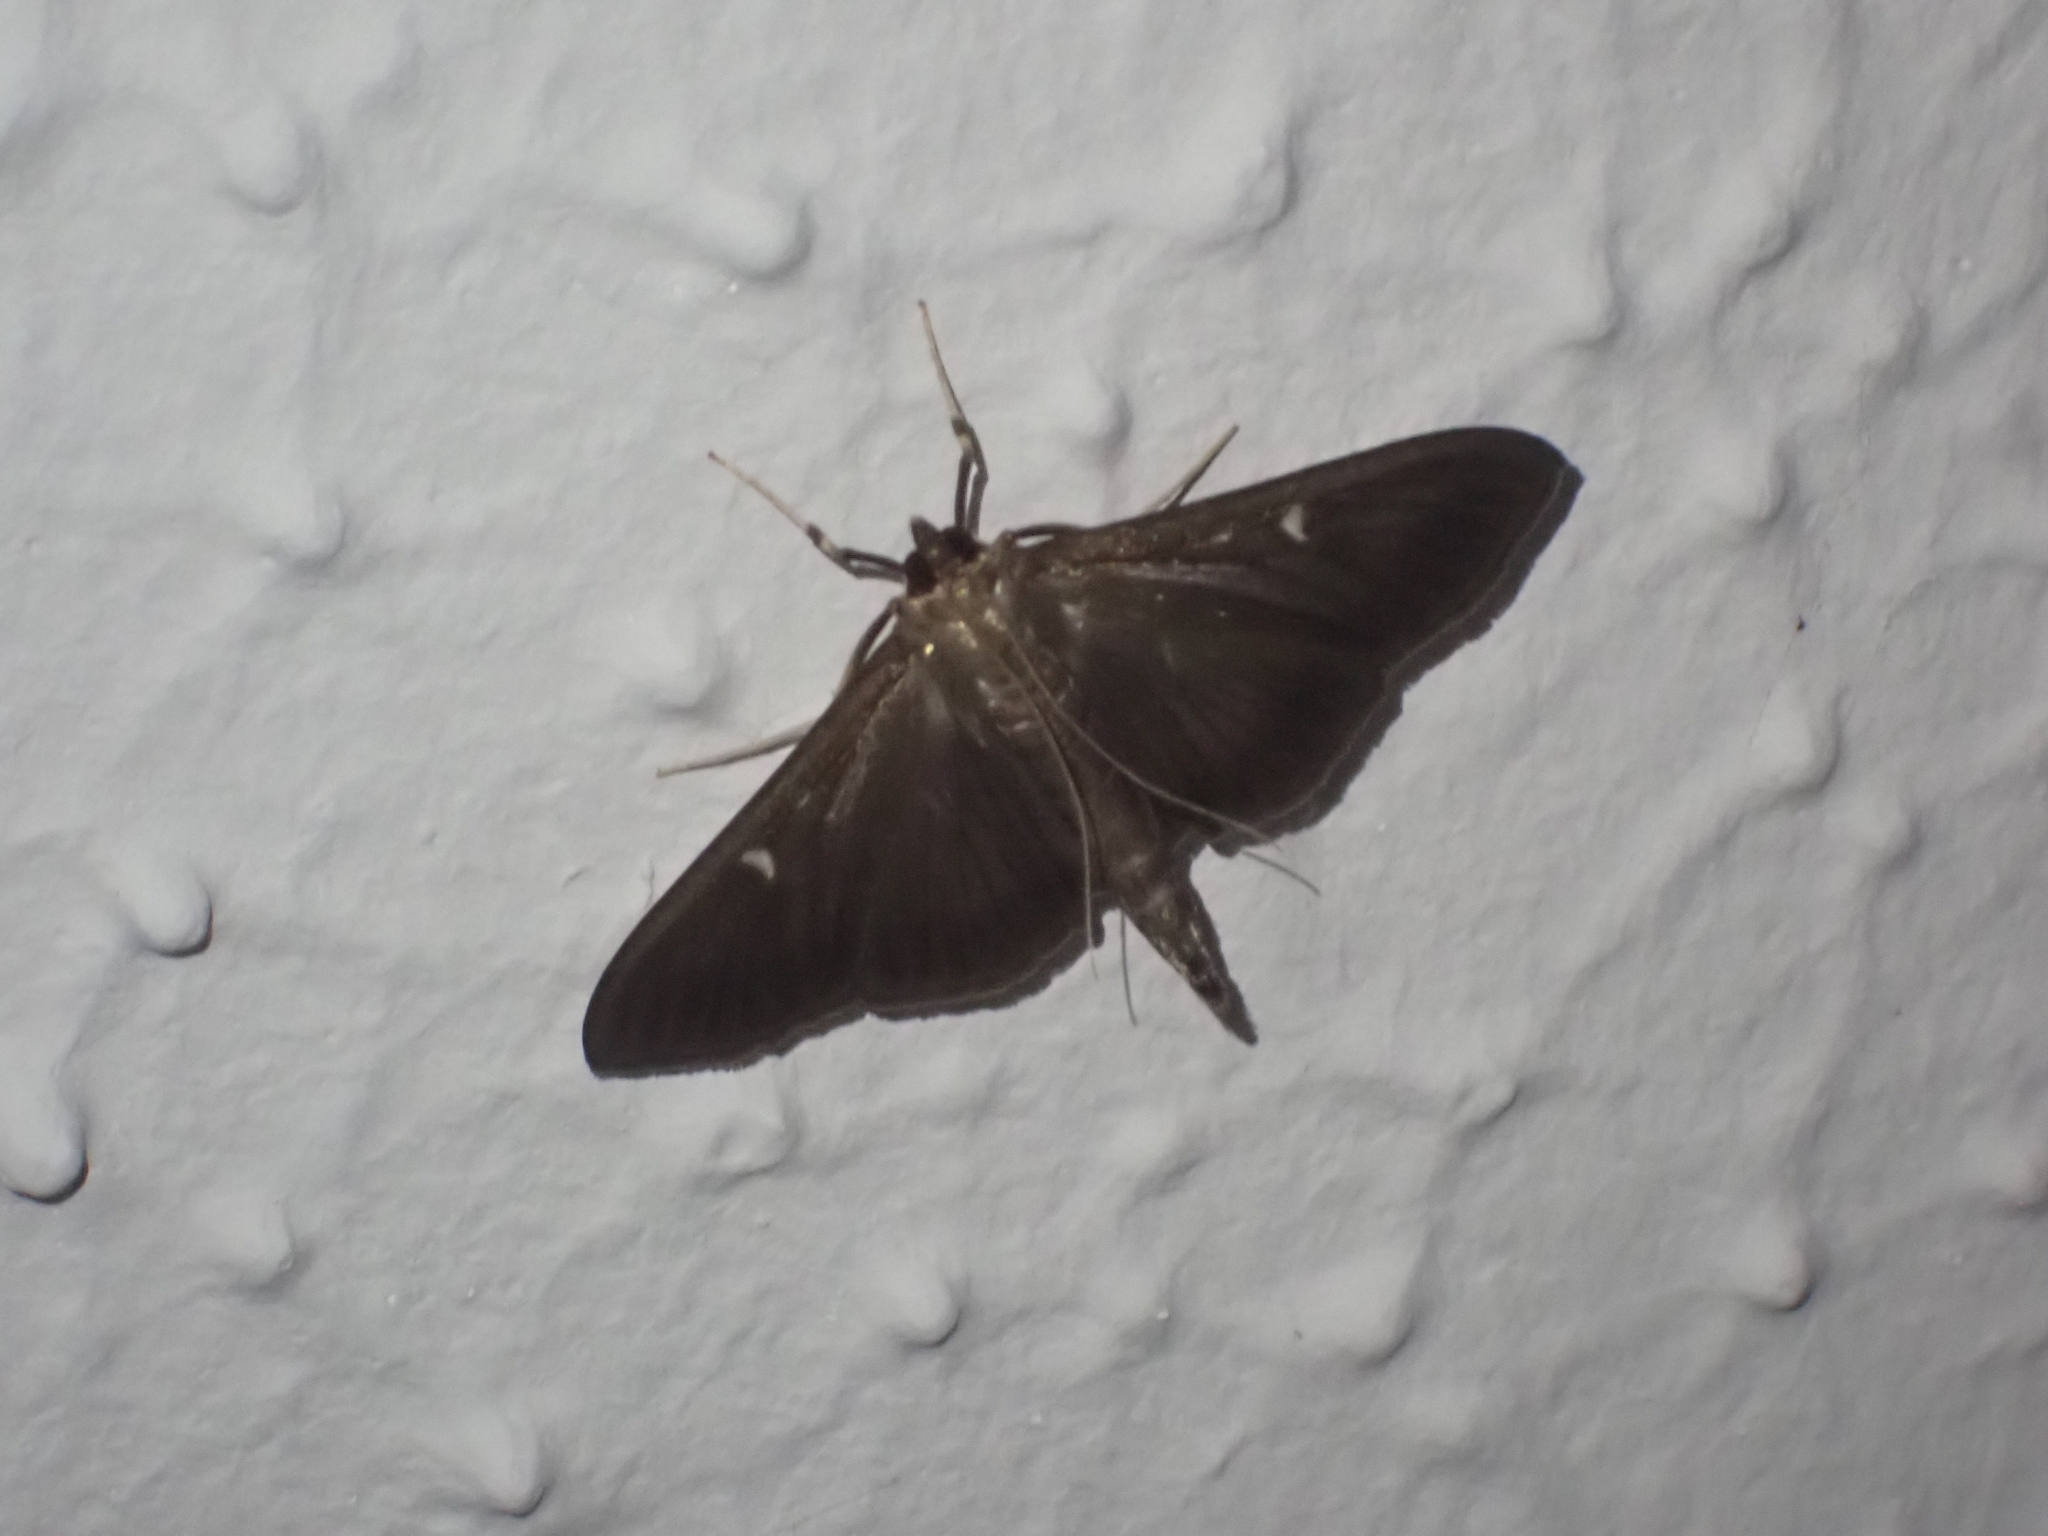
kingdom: Animalia
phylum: Arthropoda
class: Insecta
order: Lepidoptera
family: Crambidae
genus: Cydalima
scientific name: Cydalima perspectalis
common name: Box tree moth
